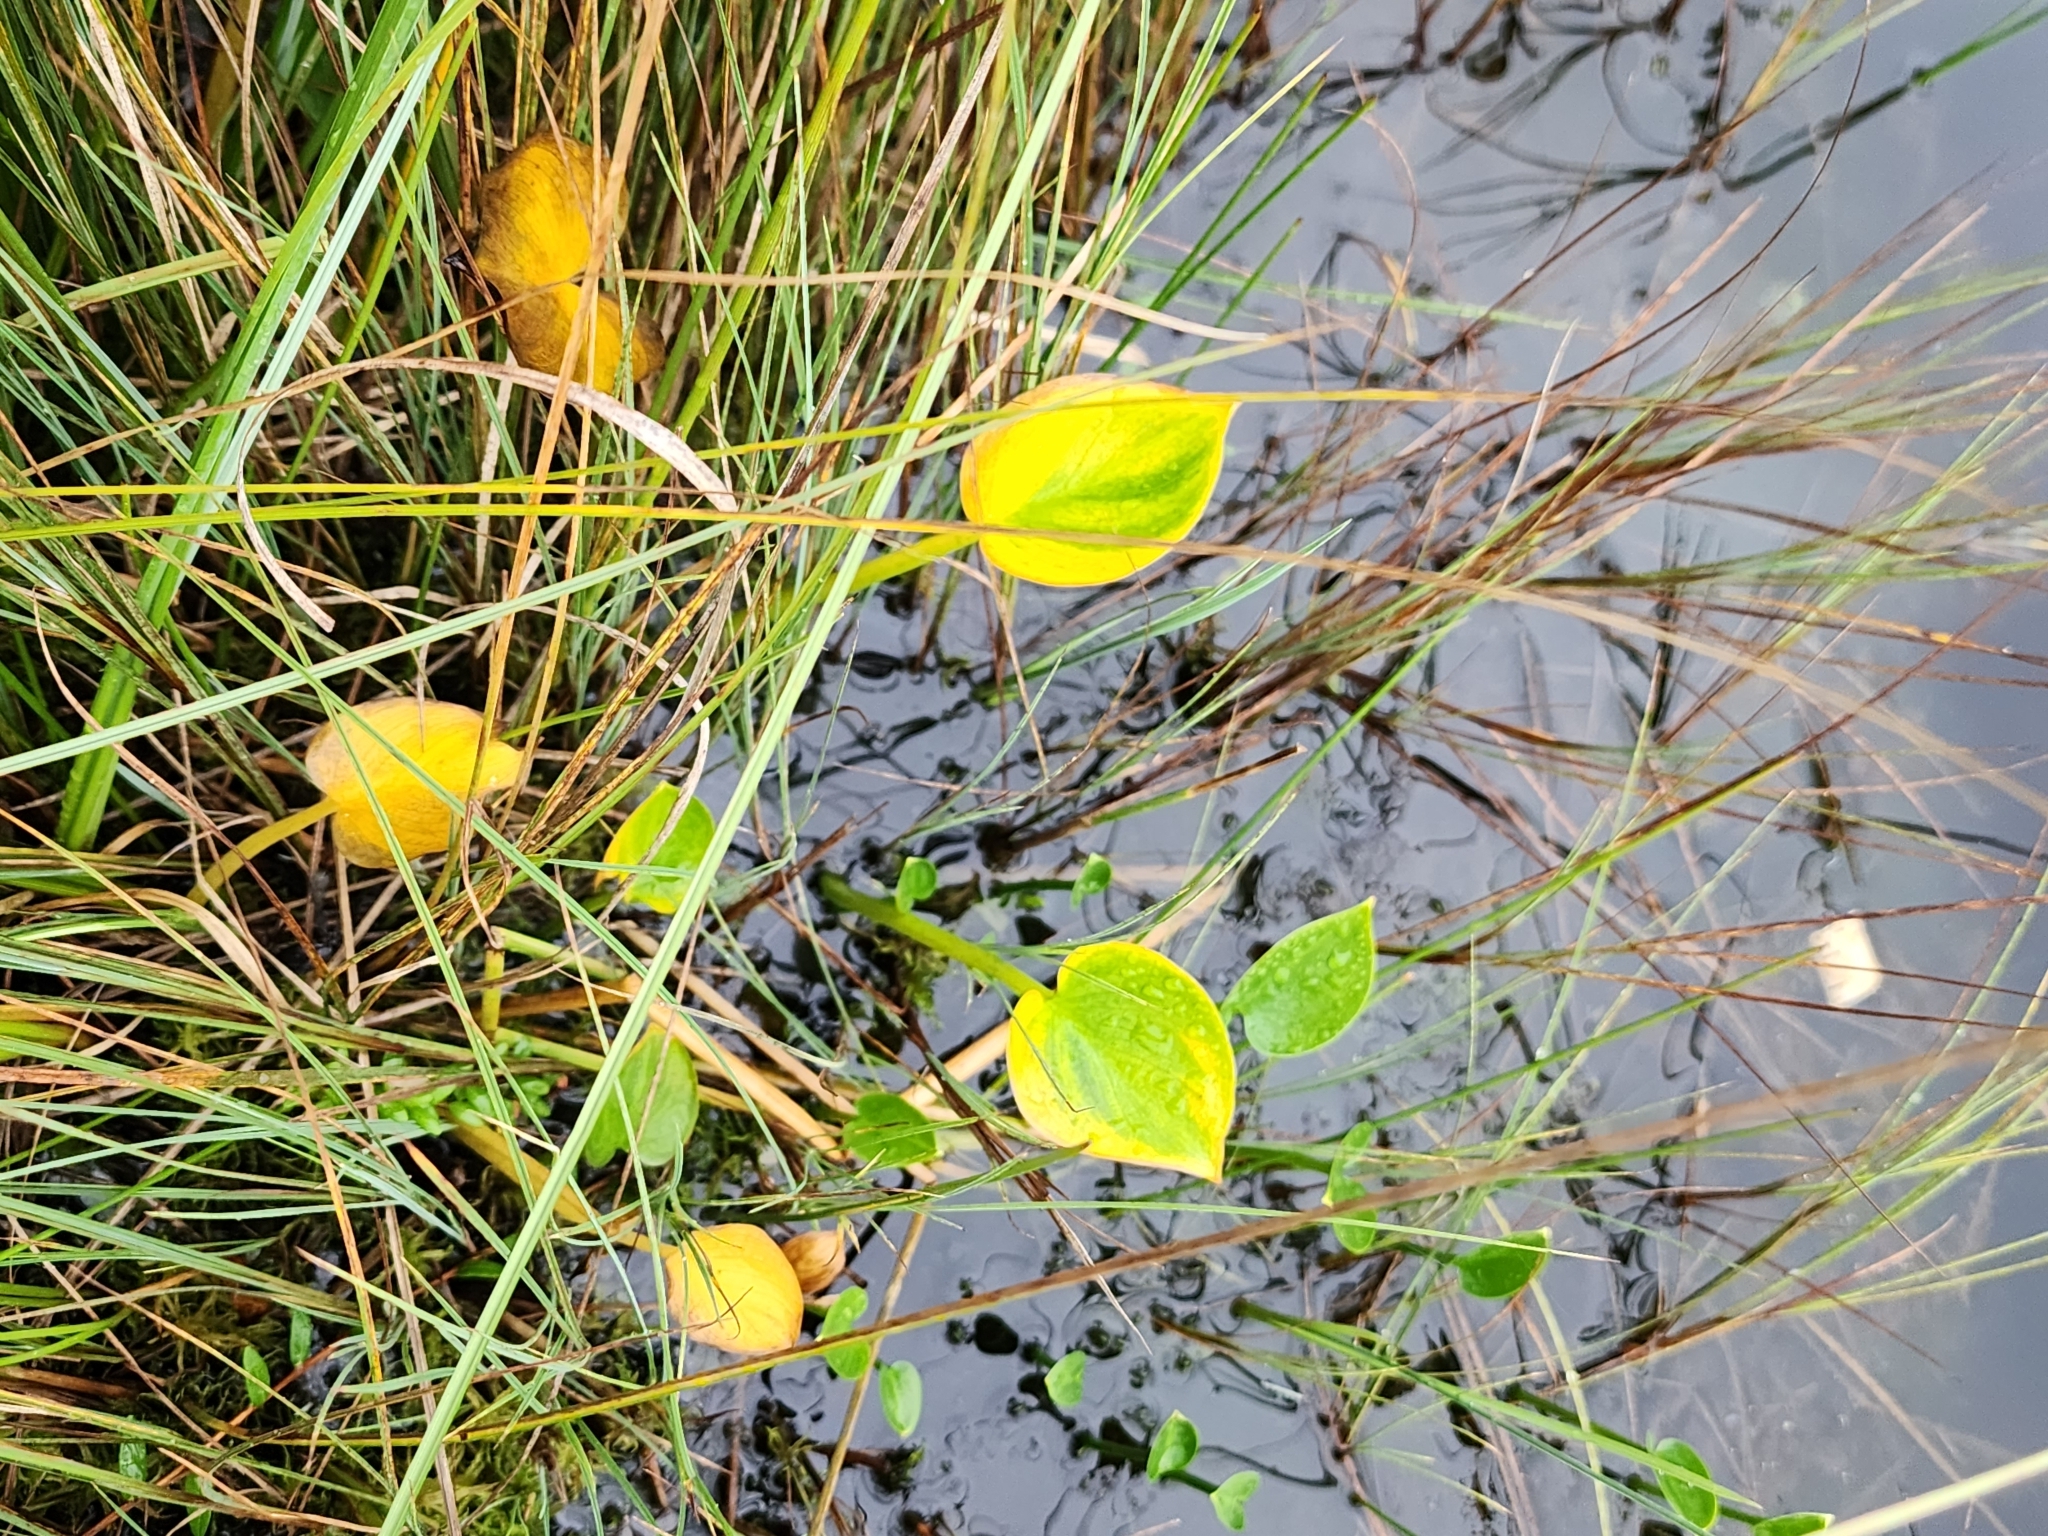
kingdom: Plantae
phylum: Tracheophyta
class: Liliopsida
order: Alismatales
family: Araceae
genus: Calla
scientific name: Calla palustris
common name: Bog arum
